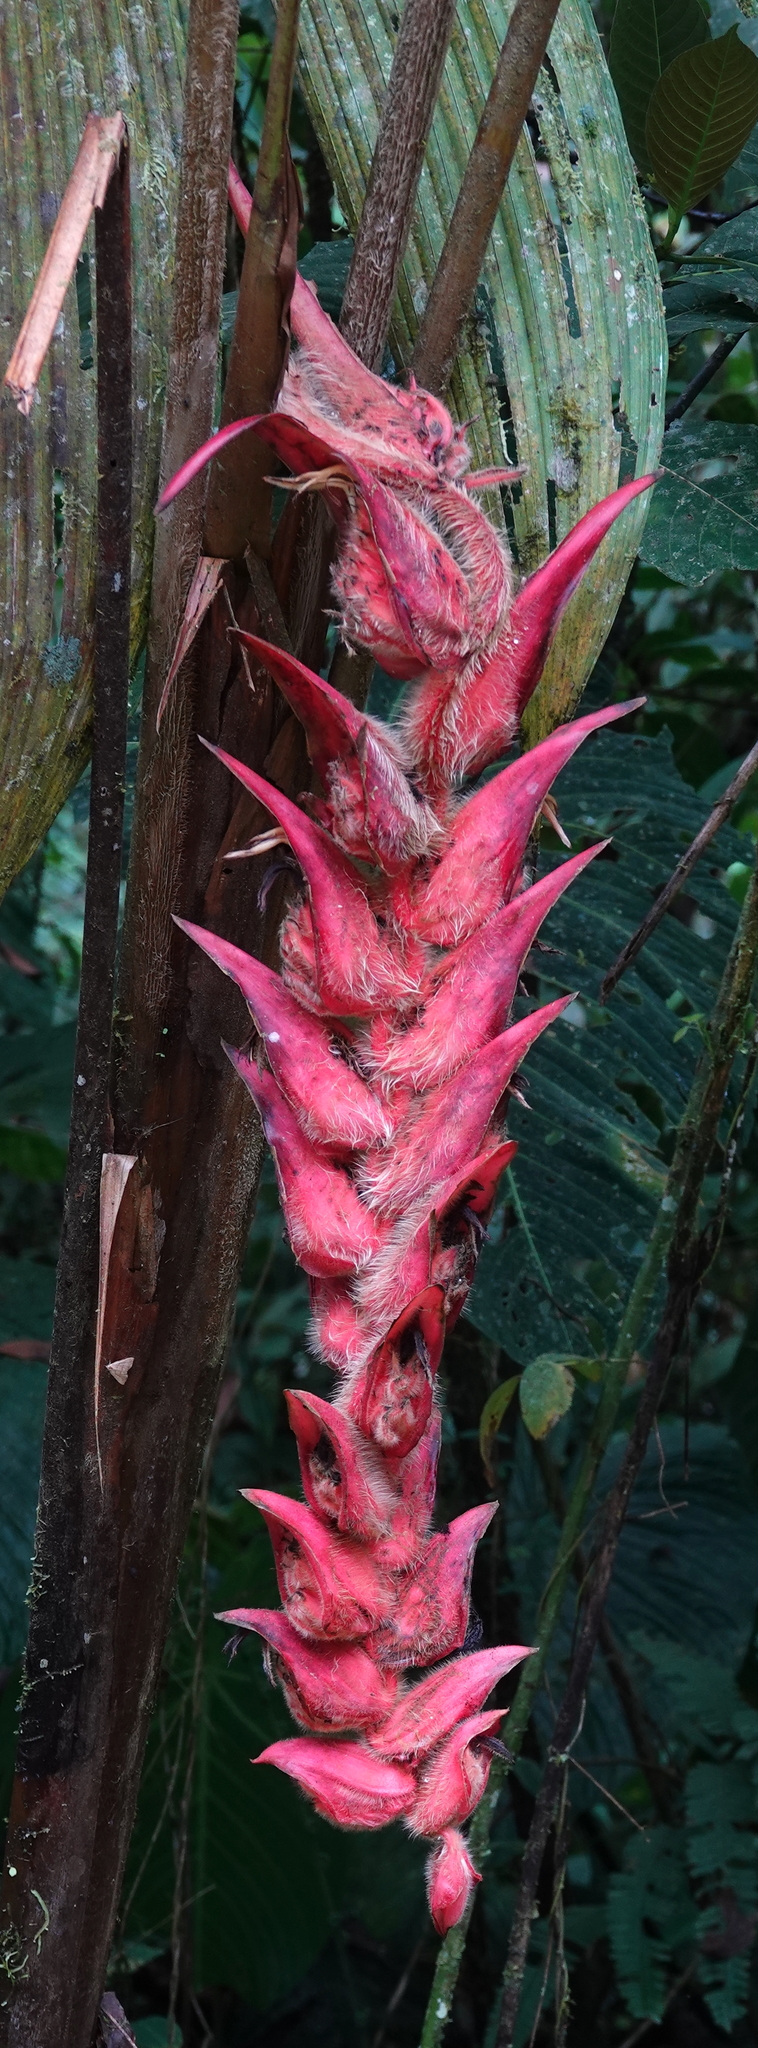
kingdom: Plantae
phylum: Tracheophyta
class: Liliopsida
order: Zingiberales
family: Heliconiaceae
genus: Heliconia
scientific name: Heliconia vellerigera
